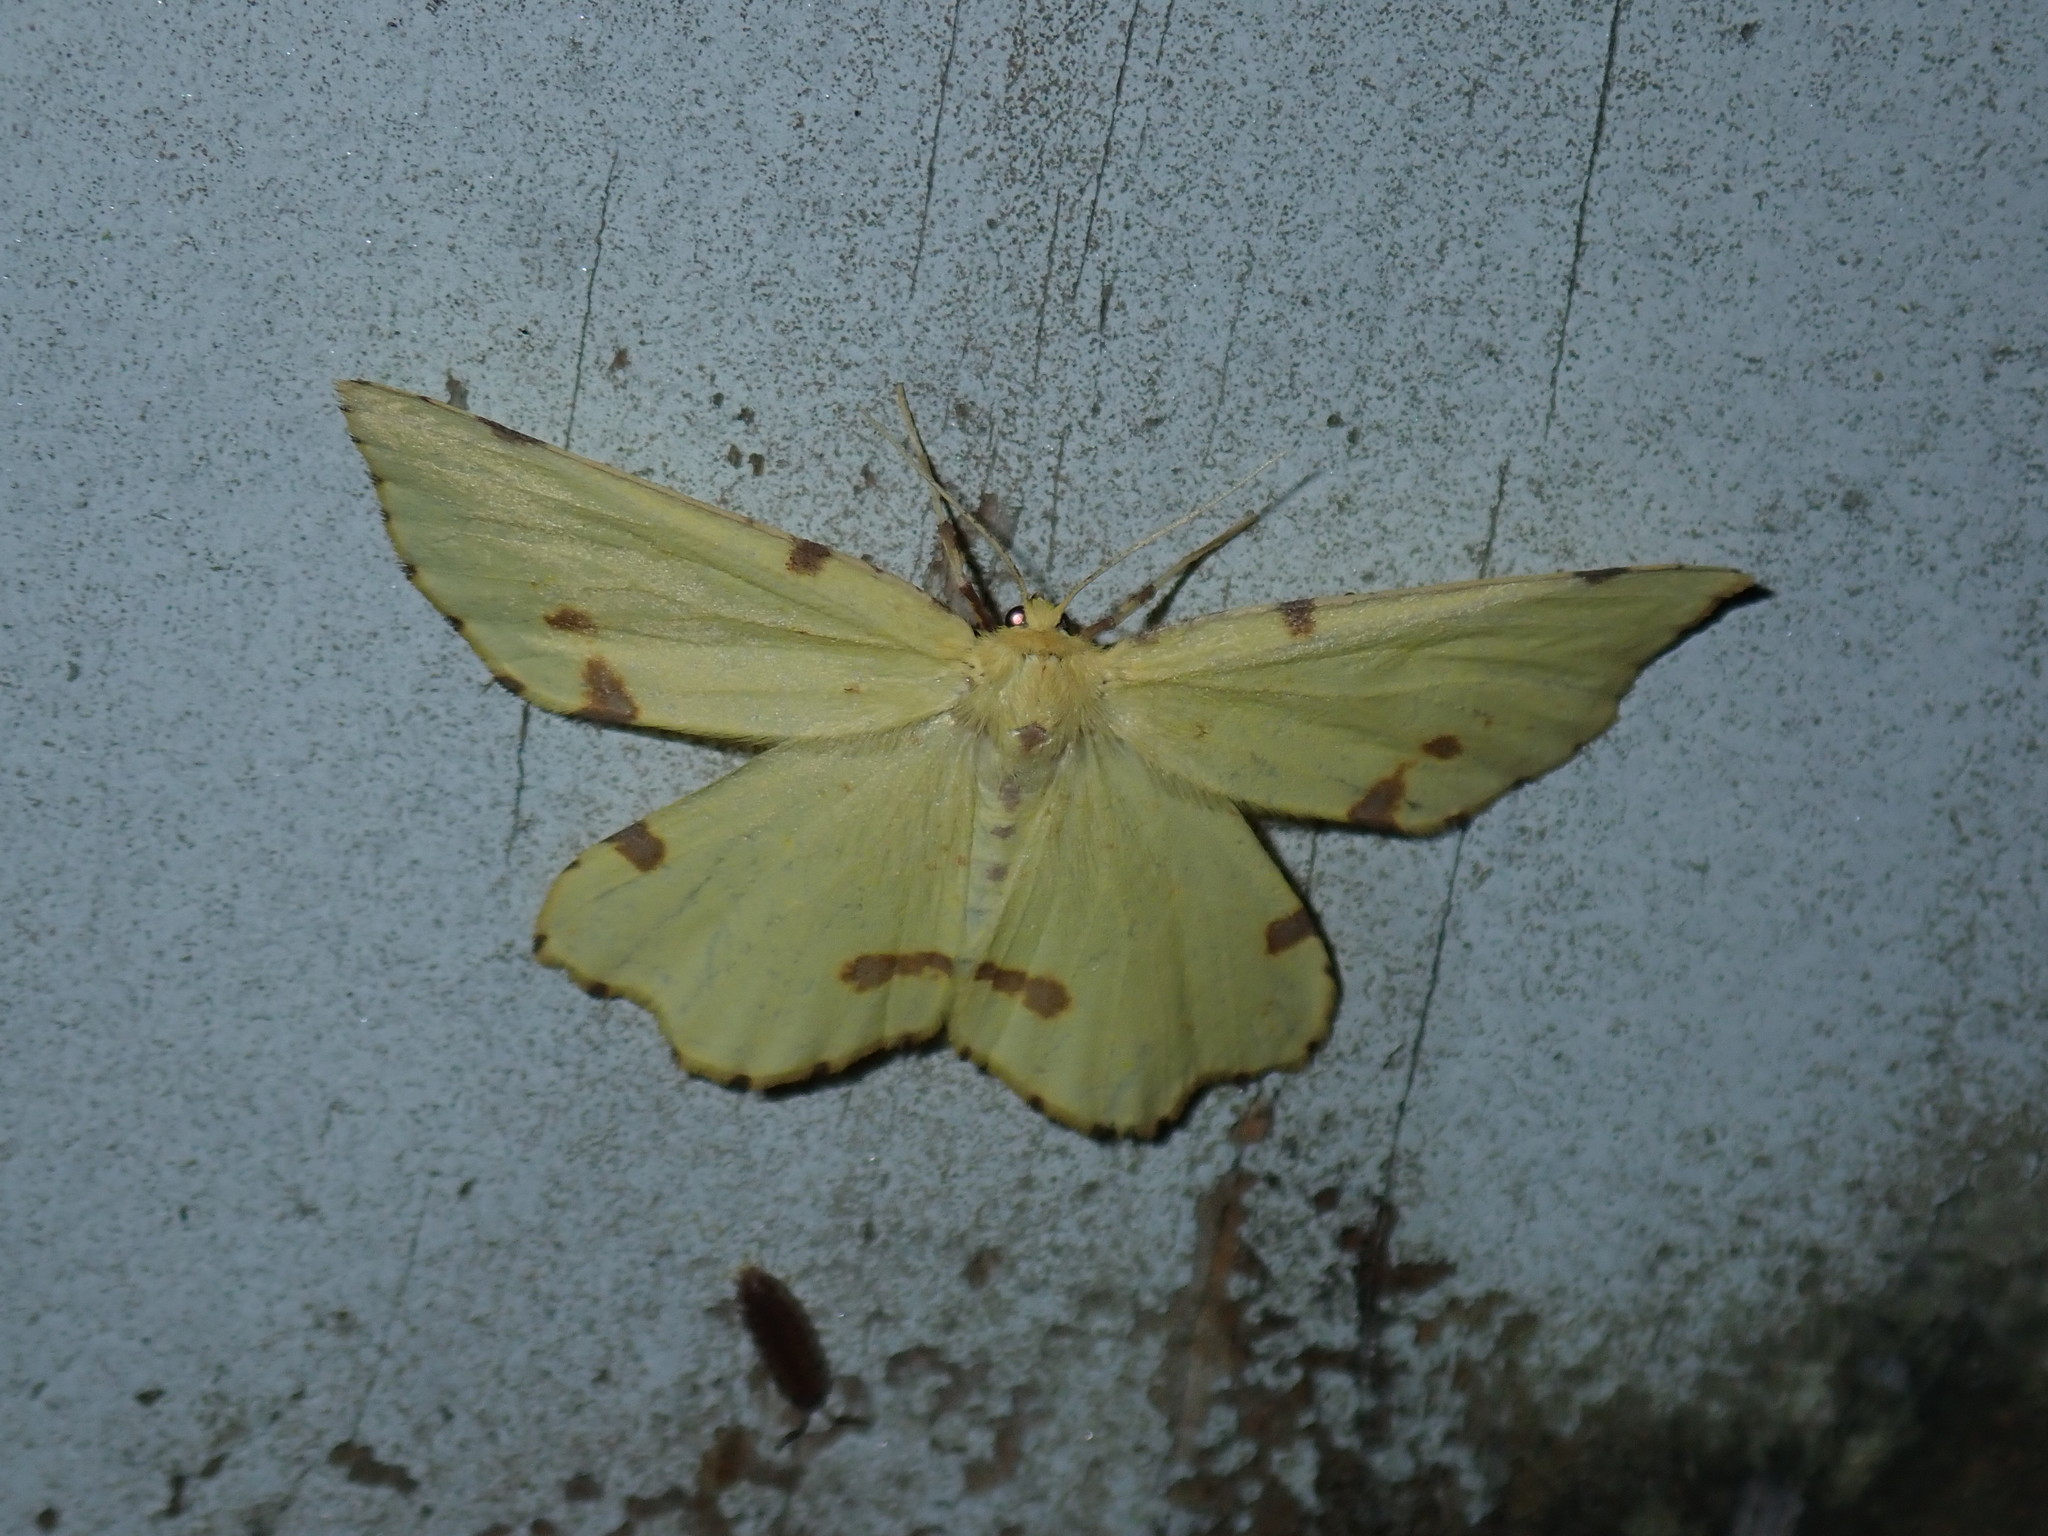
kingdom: Animalia
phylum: Arthropoda
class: Insecta
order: Lepidoptera
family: Geometridae
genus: Xanthotype
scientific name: Xanthotype
